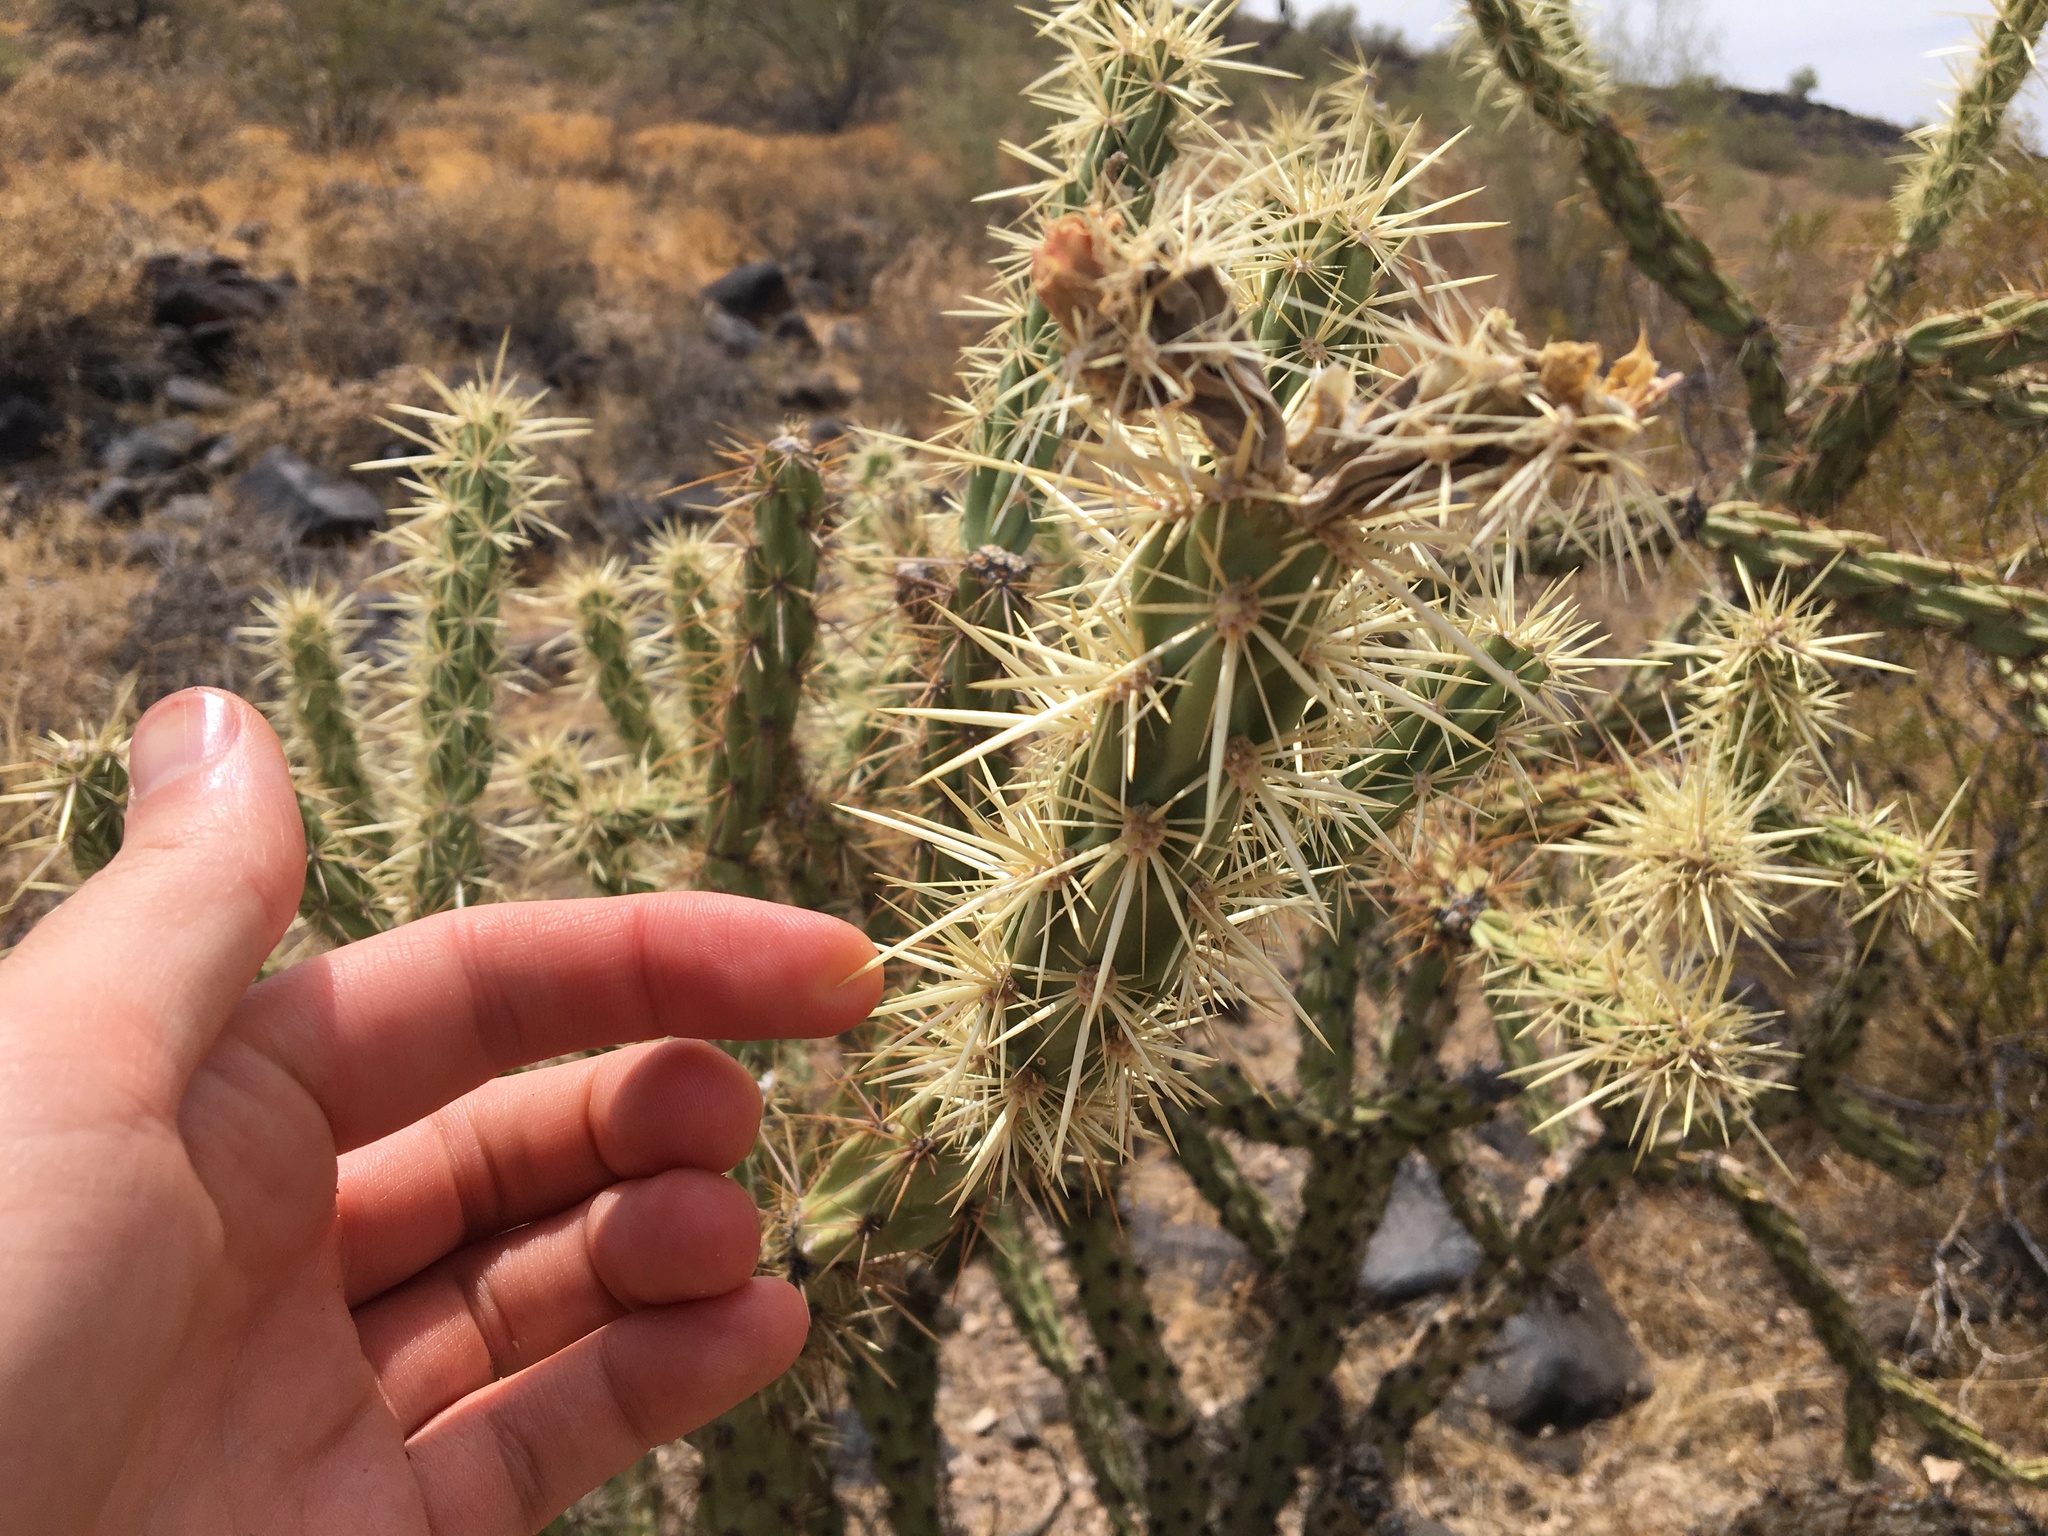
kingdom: Plantae
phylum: Tracheophyta
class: Magnoliopsida
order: Caryophyllales
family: Cactaceae
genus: Cylindropuntia
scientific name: Cylindropuntia acanthocarpa
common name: Buckhorn cholla
